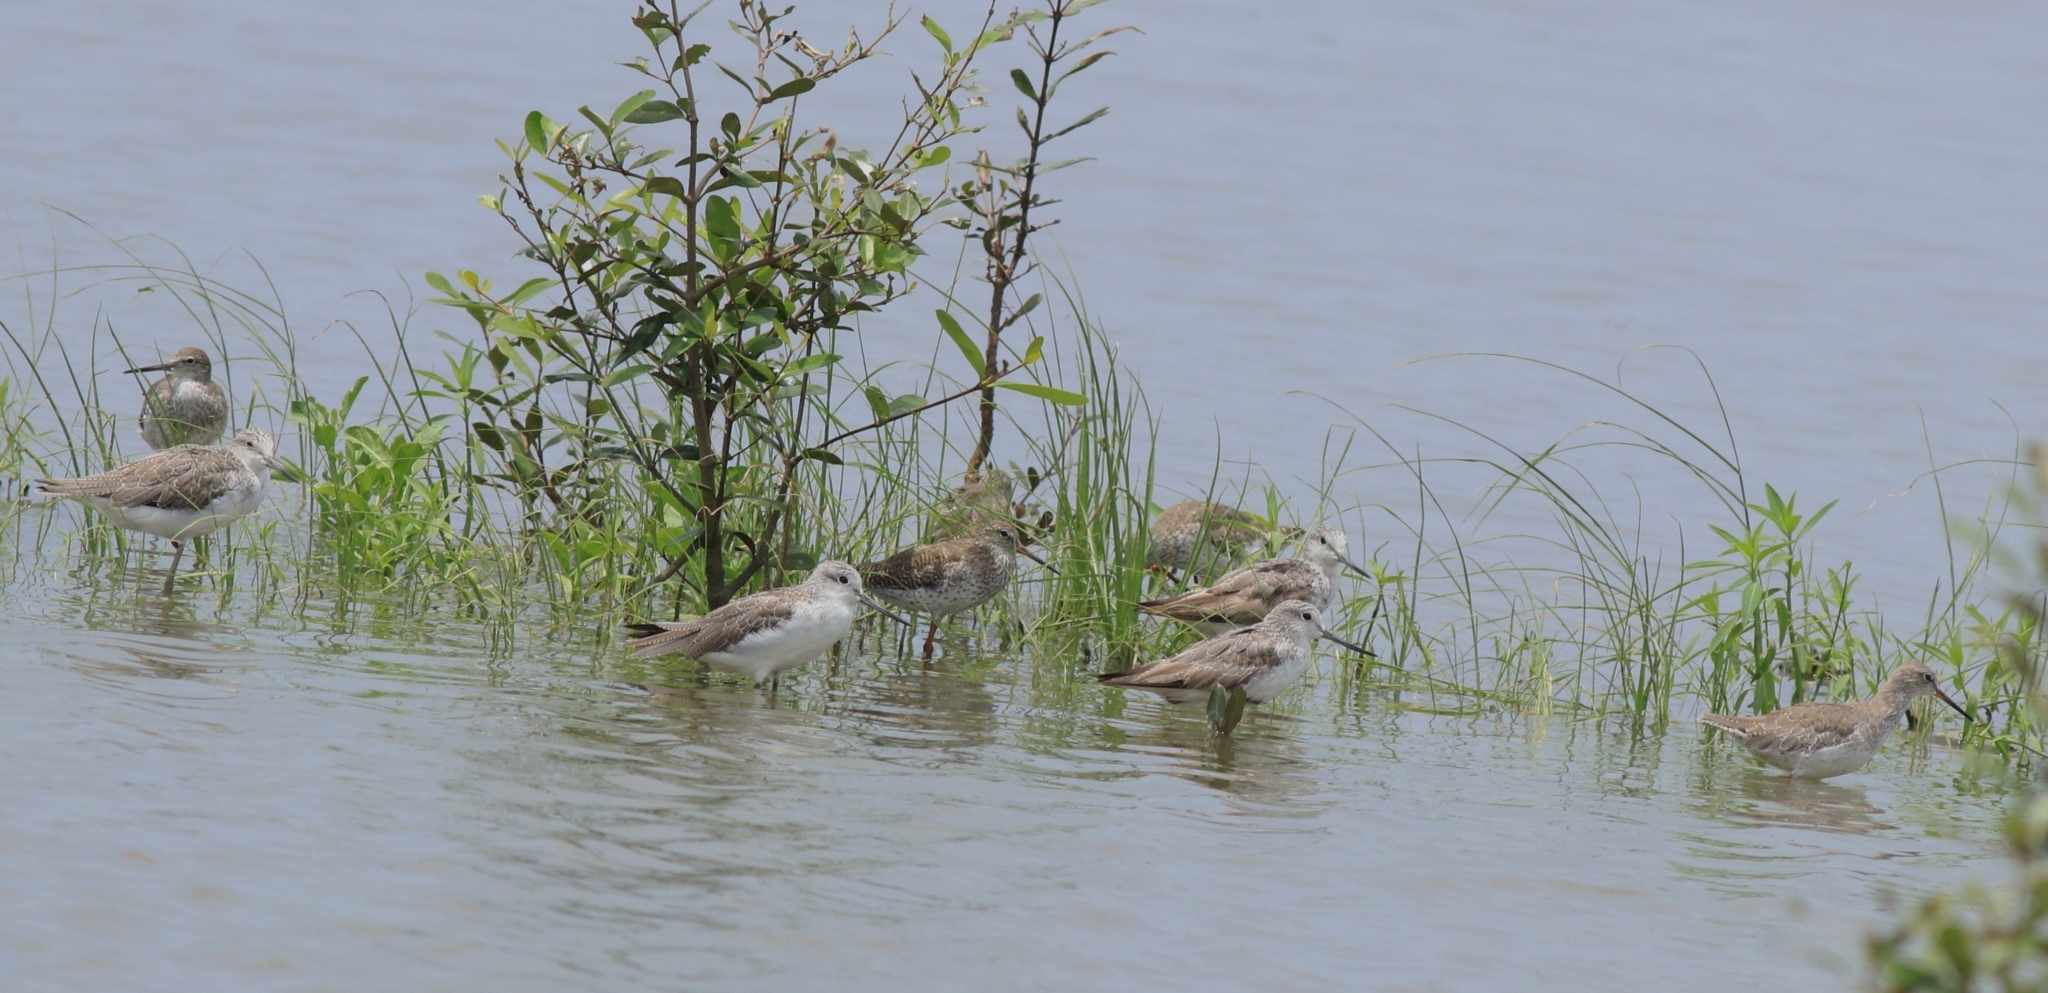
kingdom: Animalia
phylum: Chordata
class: Aves
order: Charadriiformes
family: Scolopacidae
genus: Tringa
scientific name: Tringa totanus
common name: Common redshank
